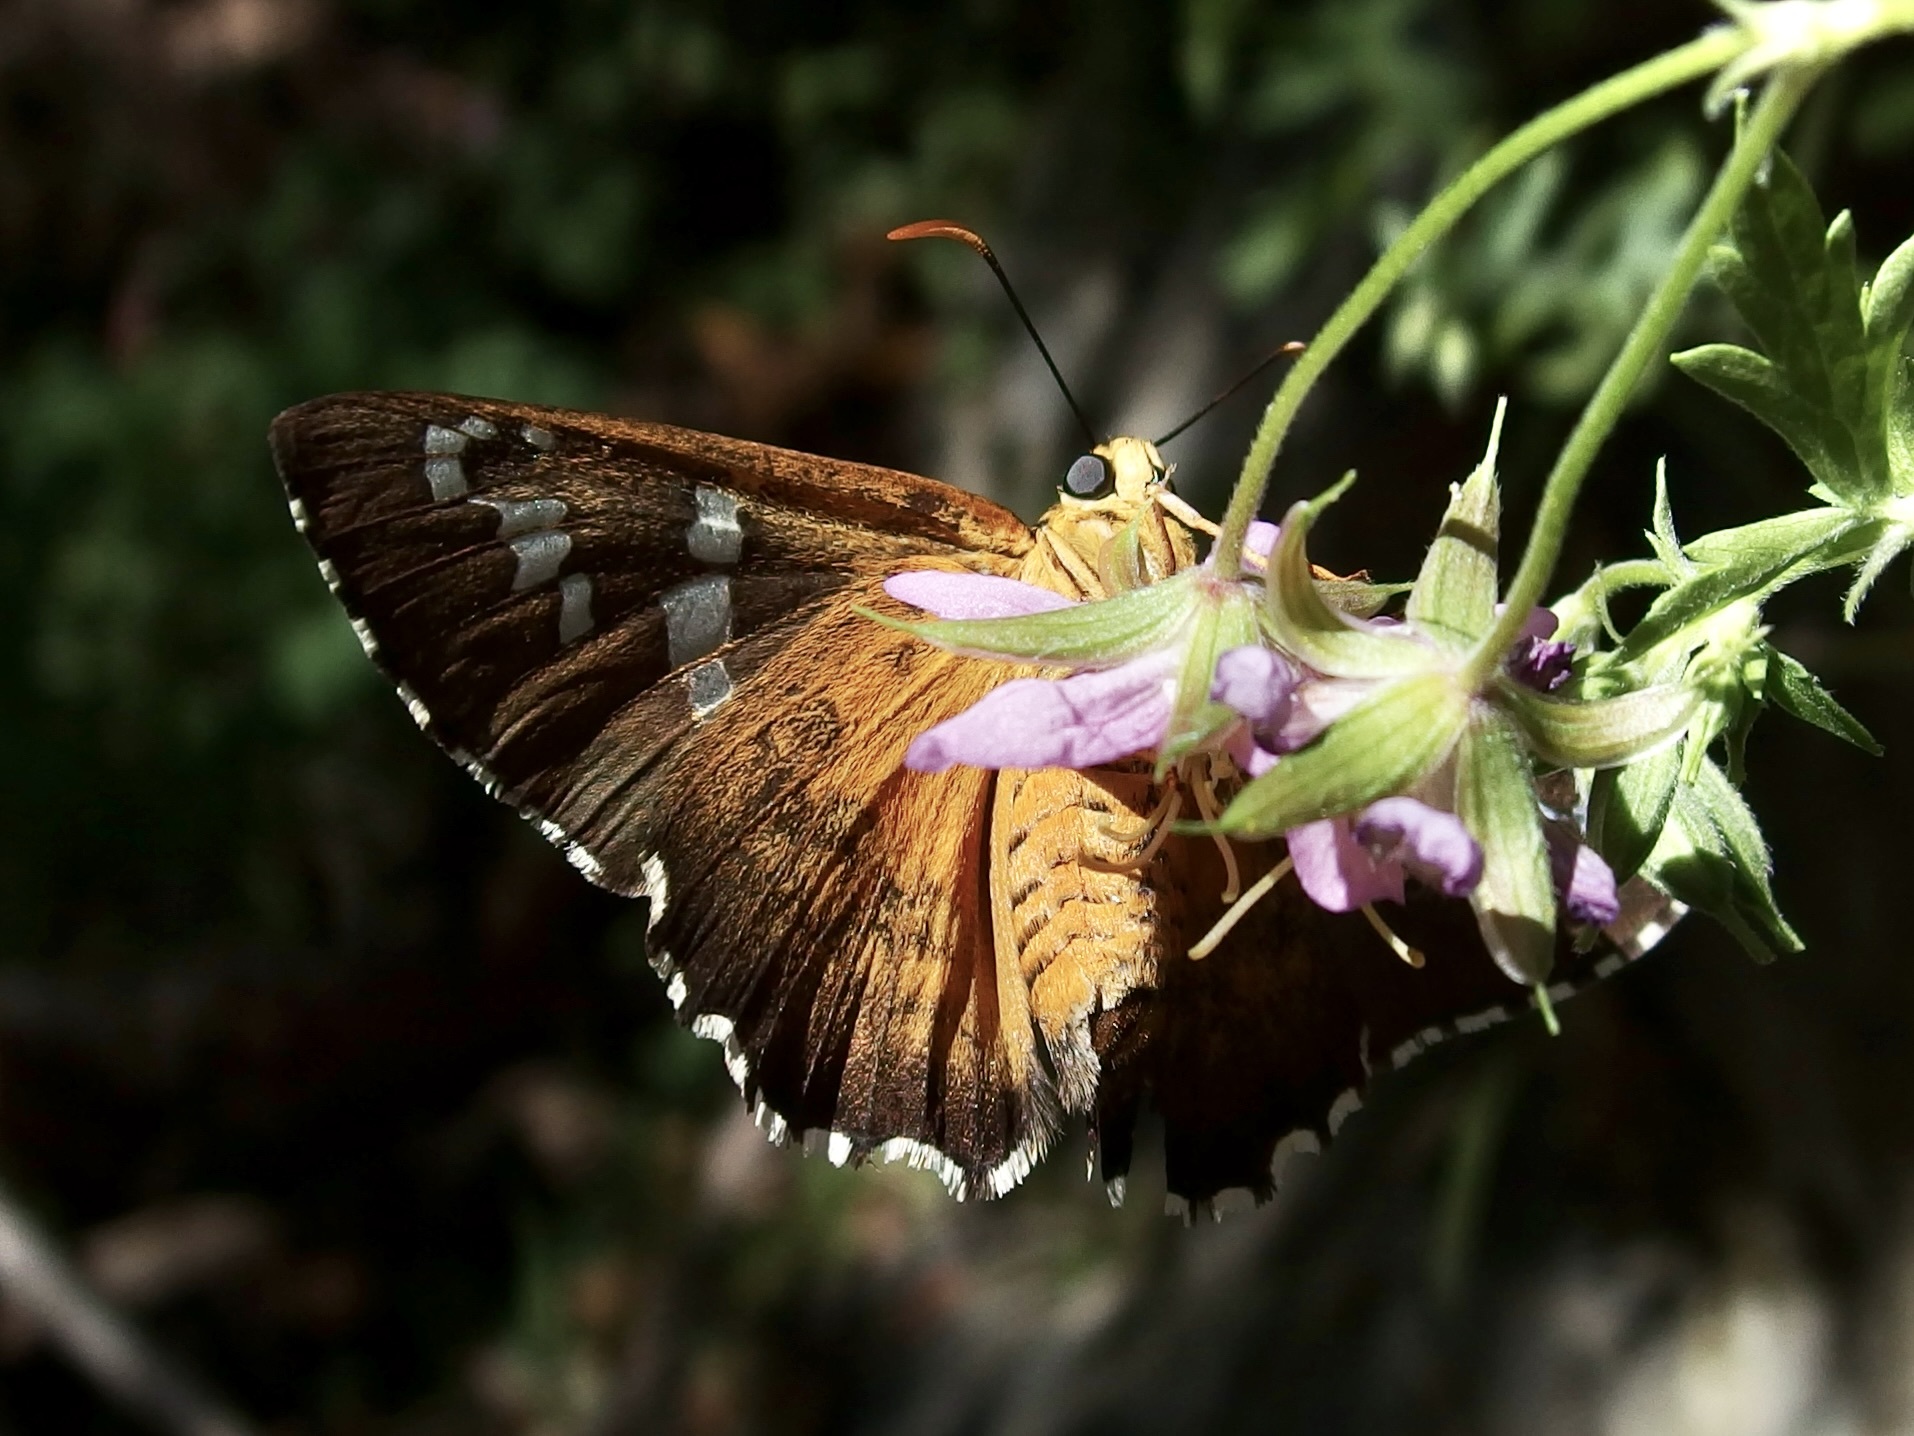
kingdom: Animalia
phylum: Arthropoda
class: Insecta
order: Lepidoptera
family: Hesperiidae
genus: Pyrrhopyge
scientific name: Pyrrhopyge araxes
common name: Dull firetip
